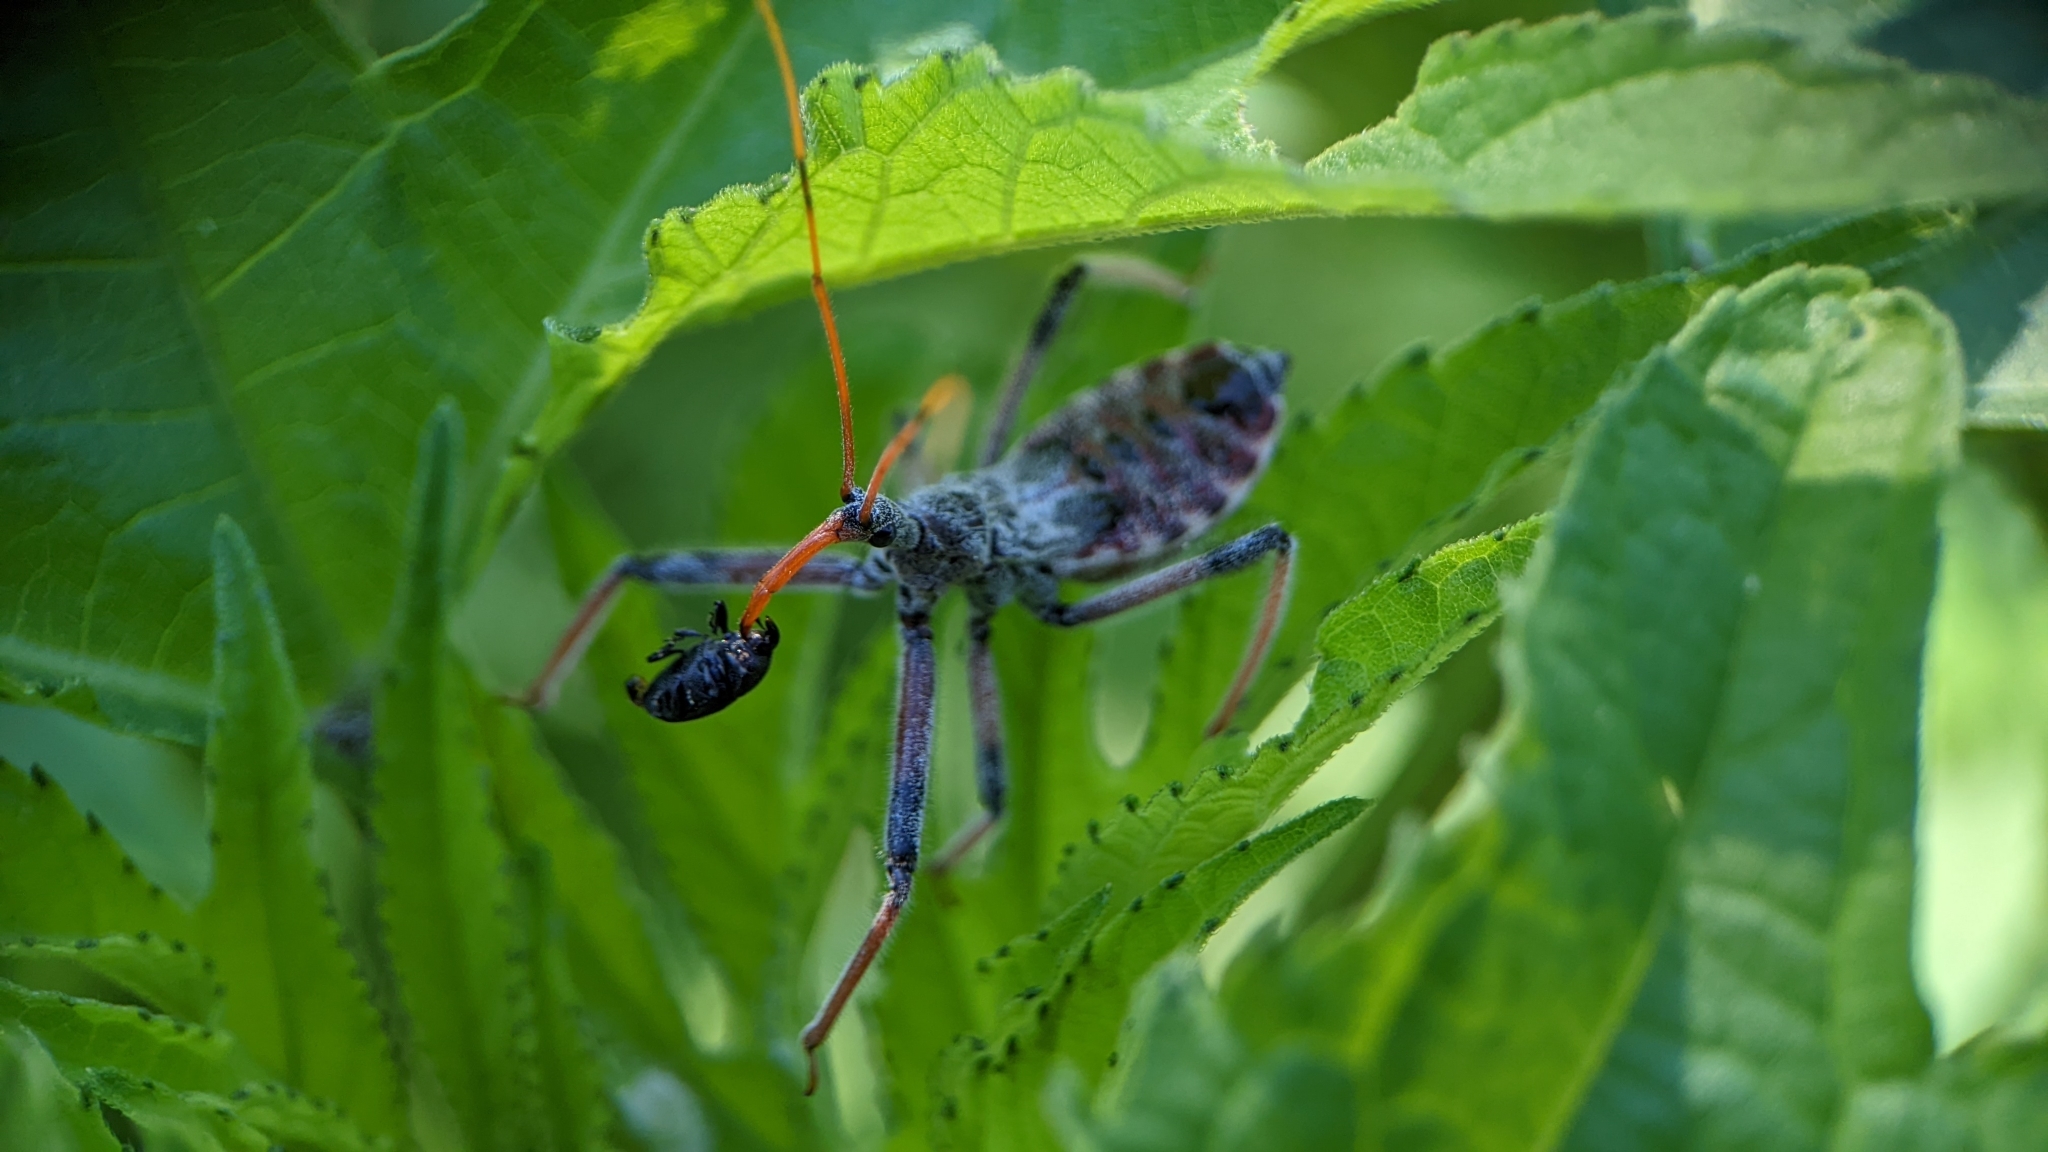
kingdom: Animalia
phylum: Arthropoda
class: Insecta
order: Hemiptera
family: Reduviidae
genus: Arilus
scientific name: Arilus cristatus
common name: North american wheel bug
